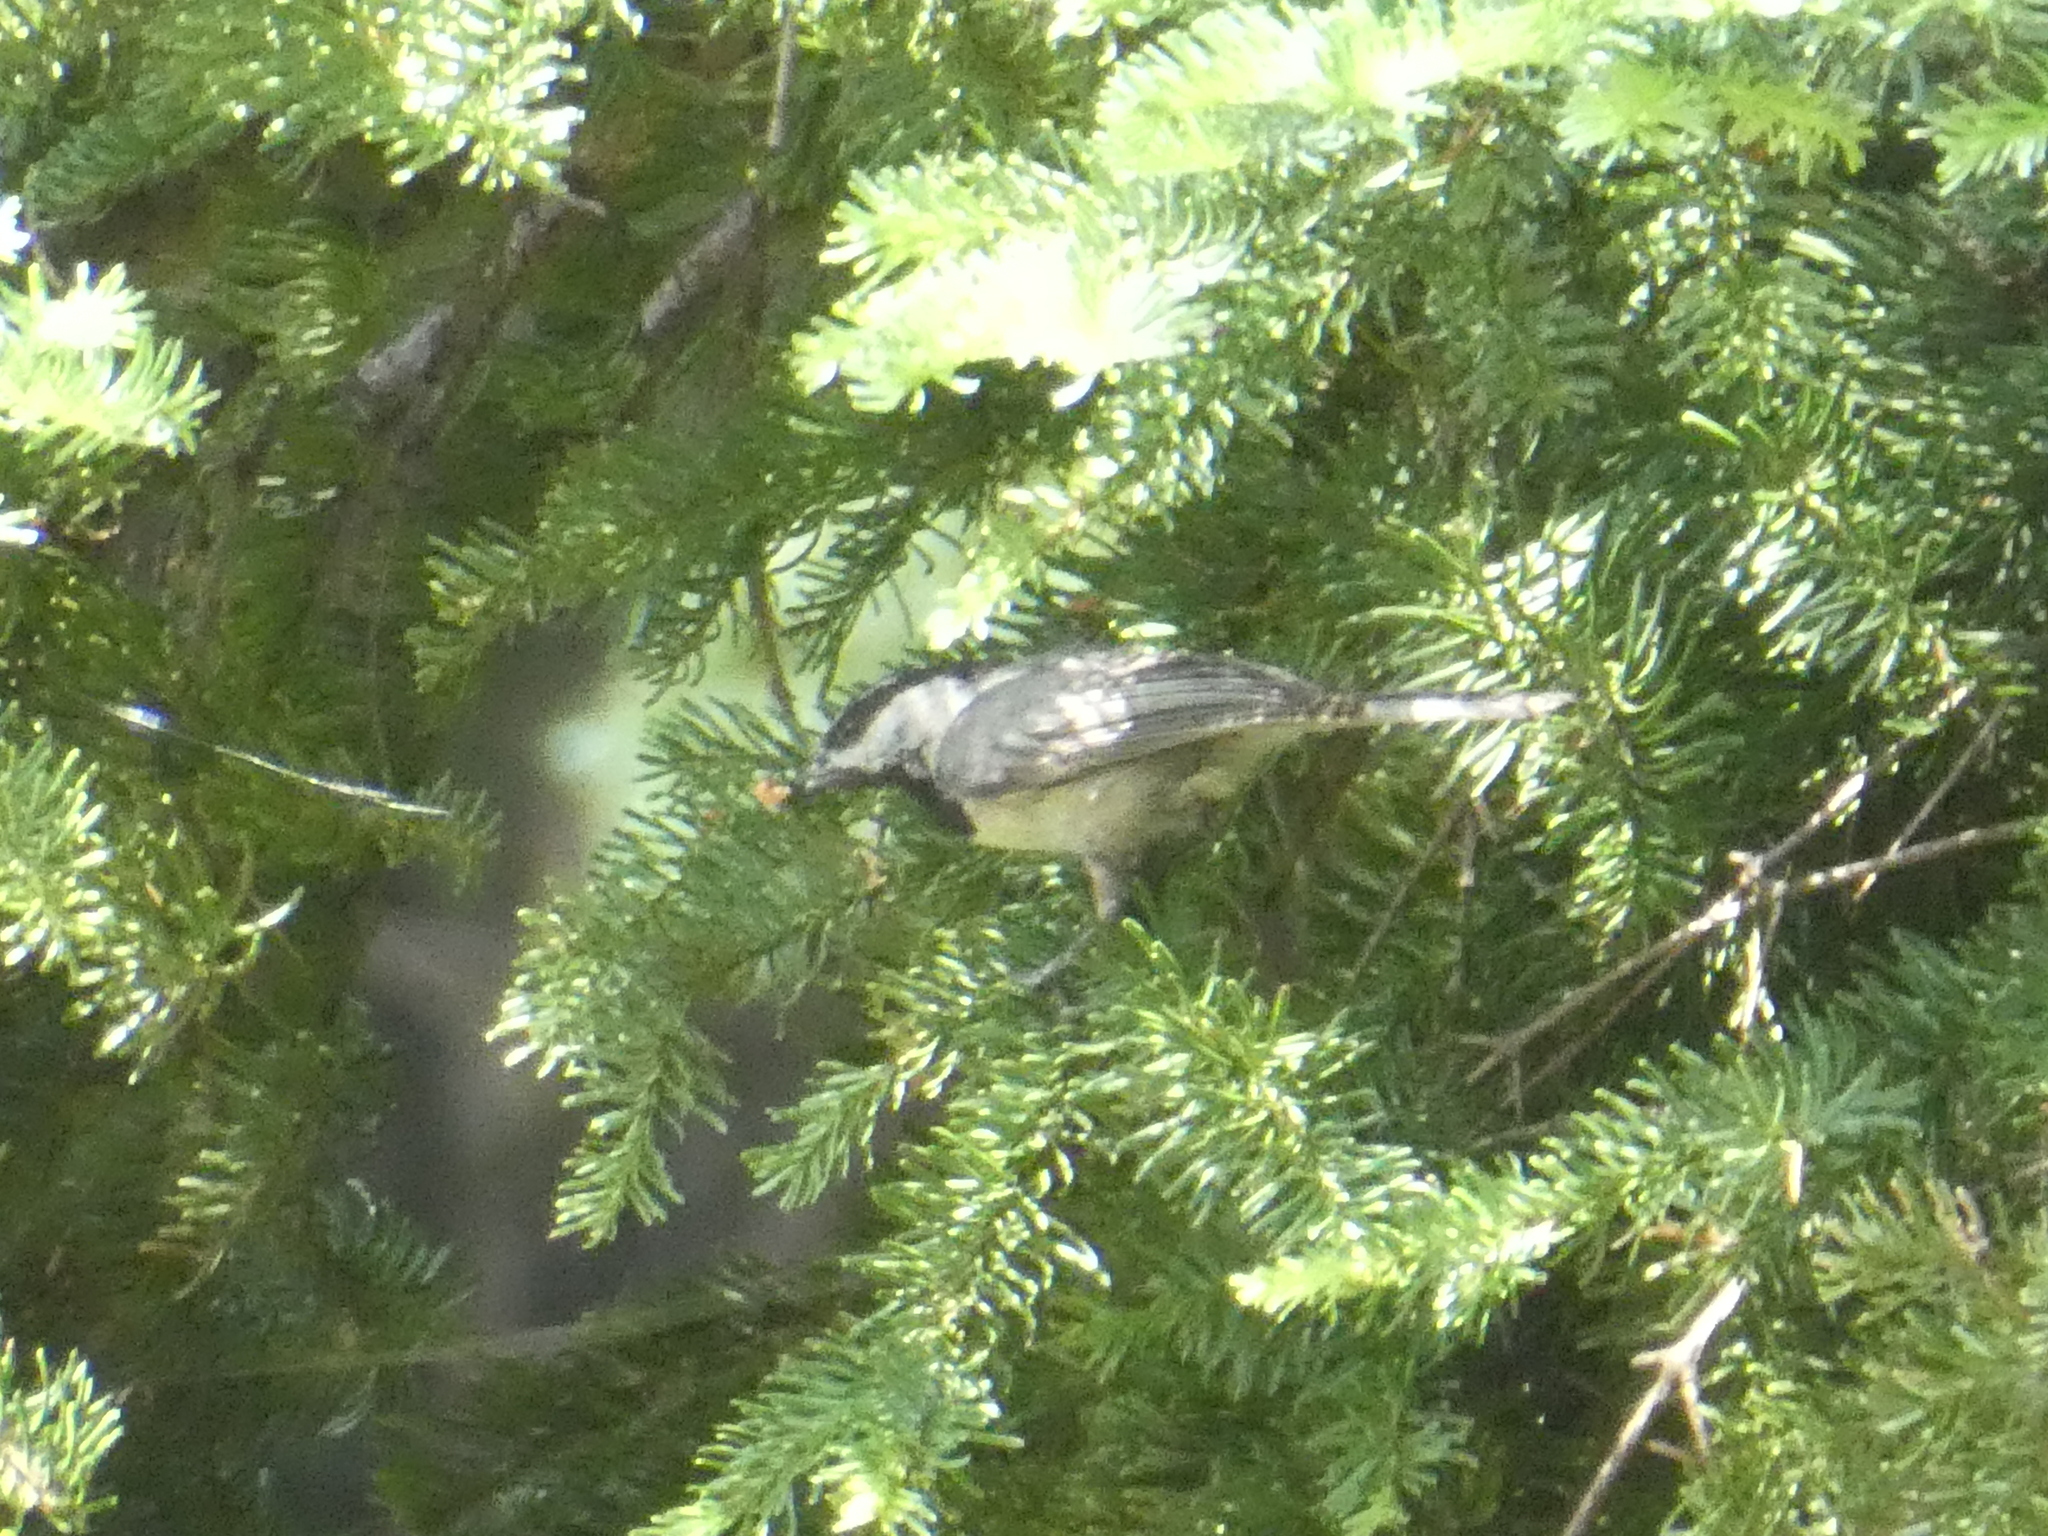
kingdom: Animalia
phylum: Chordata
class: Aves
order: Passeriformes
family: Paridae
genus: Poecile
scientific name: Poecile gambeli
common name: Mountain chickadee
